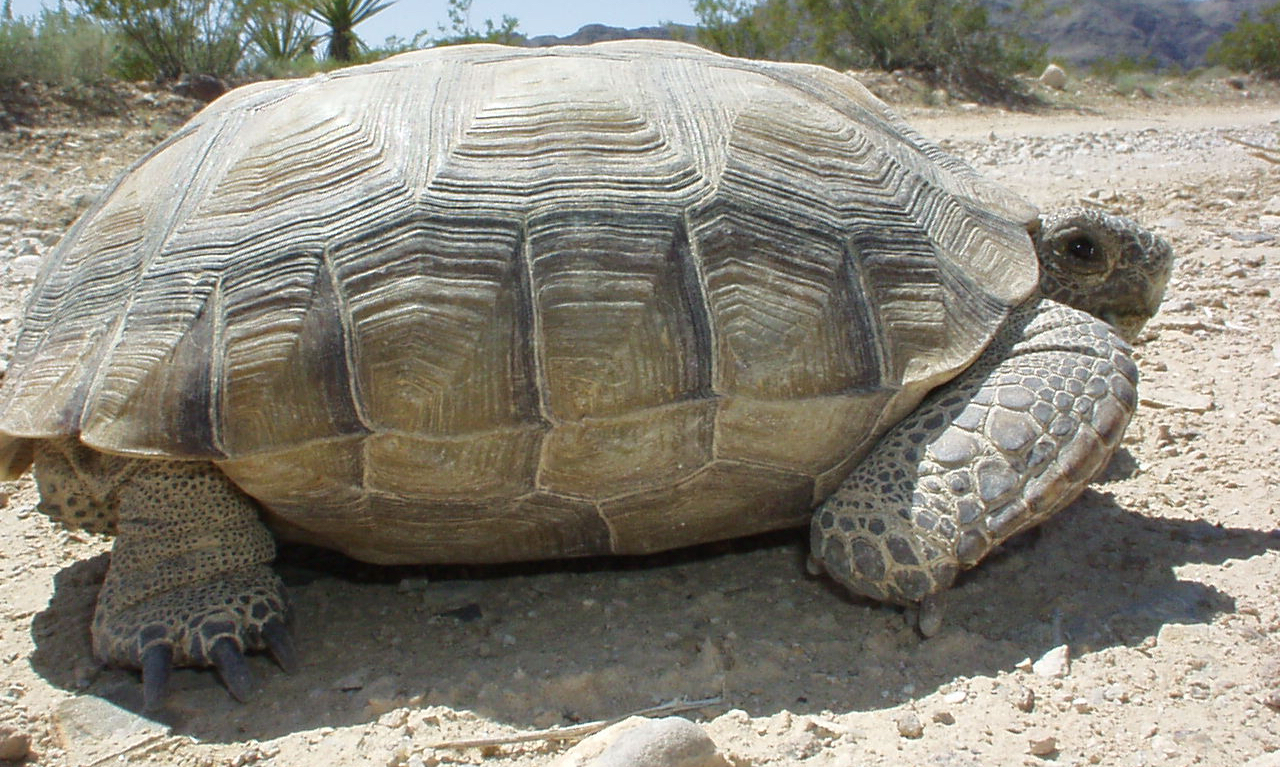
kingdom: Animalia
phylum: Chordata
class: Testudines
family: Testudinidae
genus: Gopherus
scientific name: Gopherus agassizii
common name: Mojave desert tortoise
